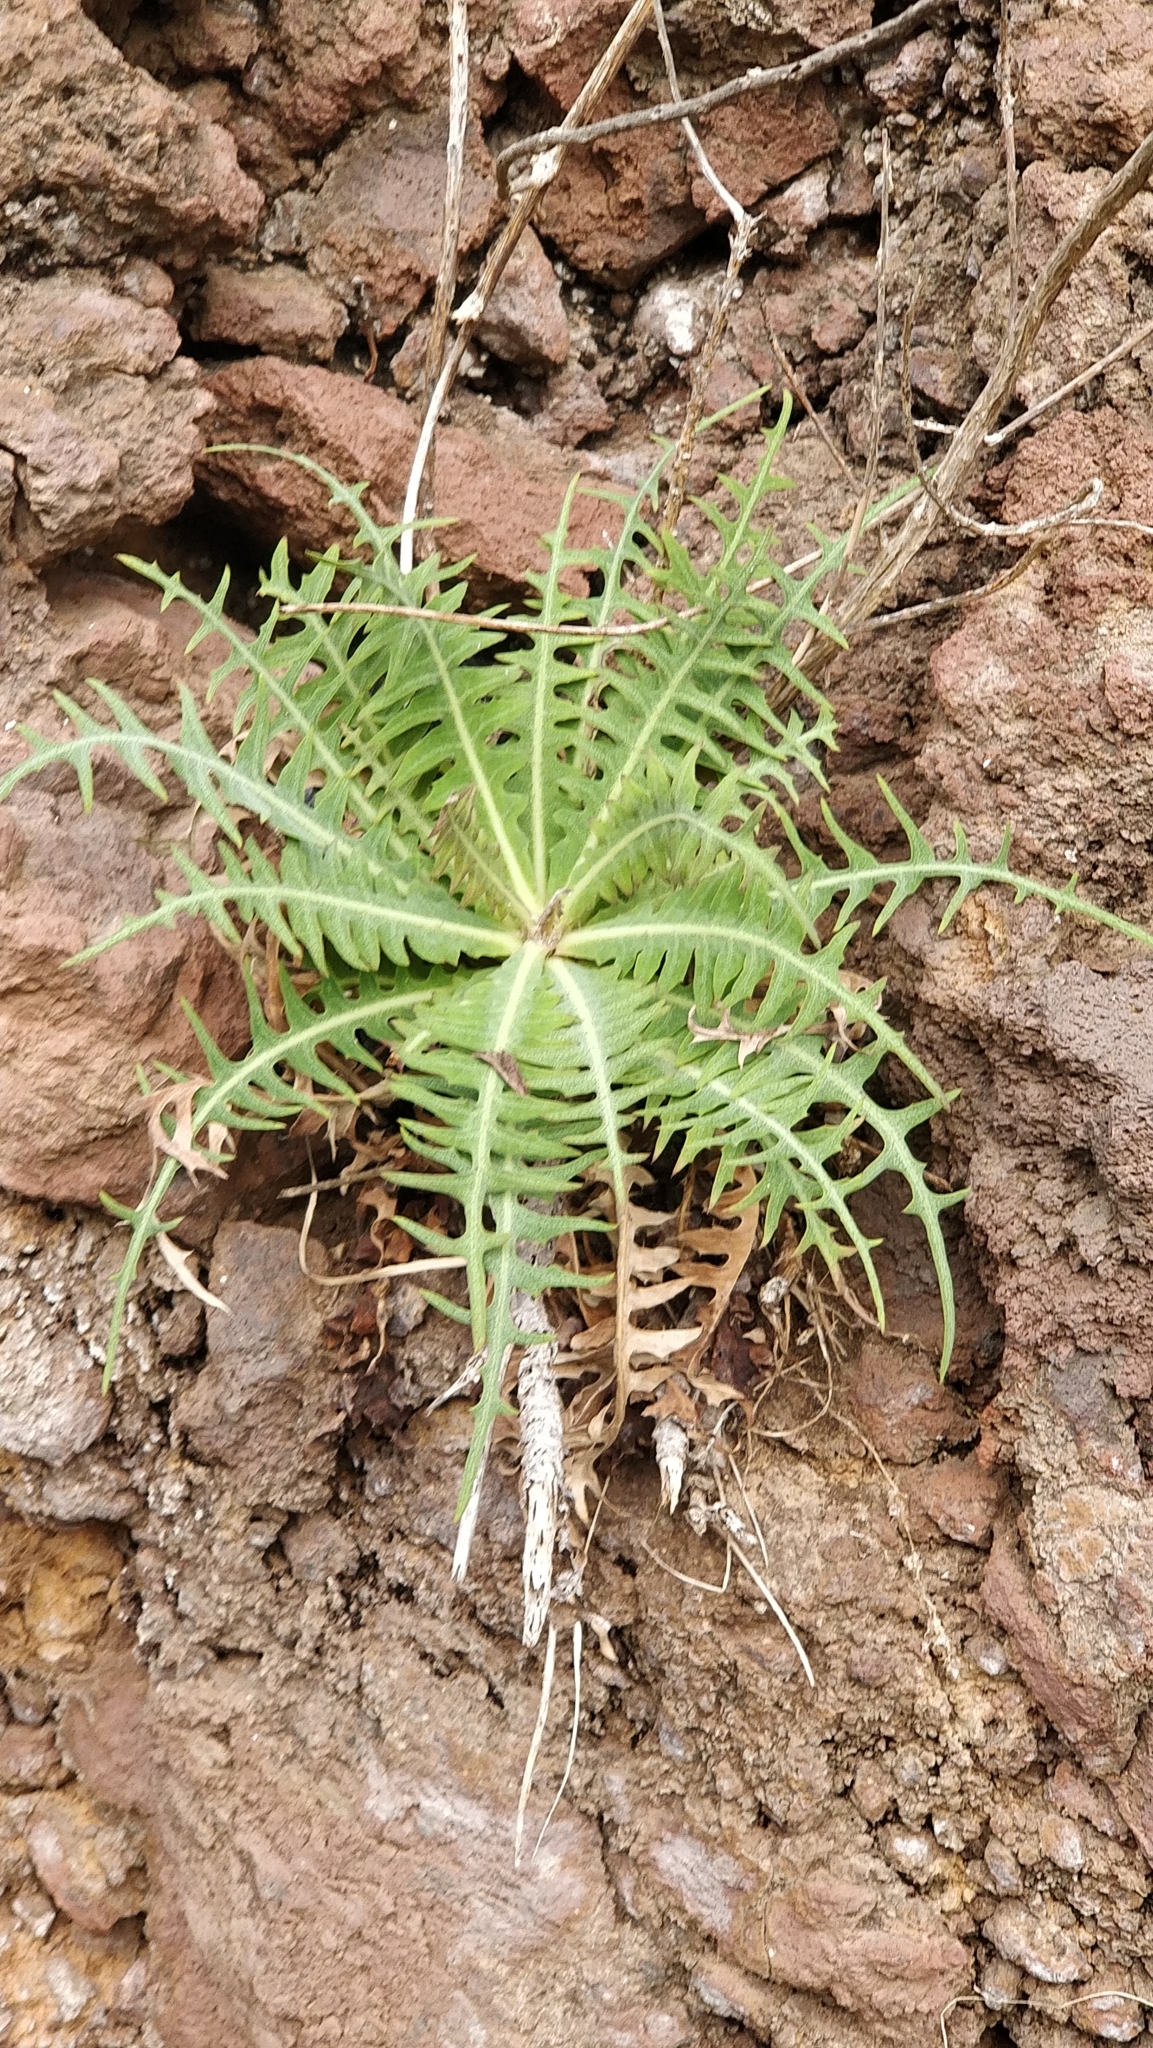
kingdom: Plantae
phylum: Tracheophyta
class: Magnoliopsida
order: Asterales
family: Asteraceae
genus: Sonchus
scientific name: Sonchus ustulatus
